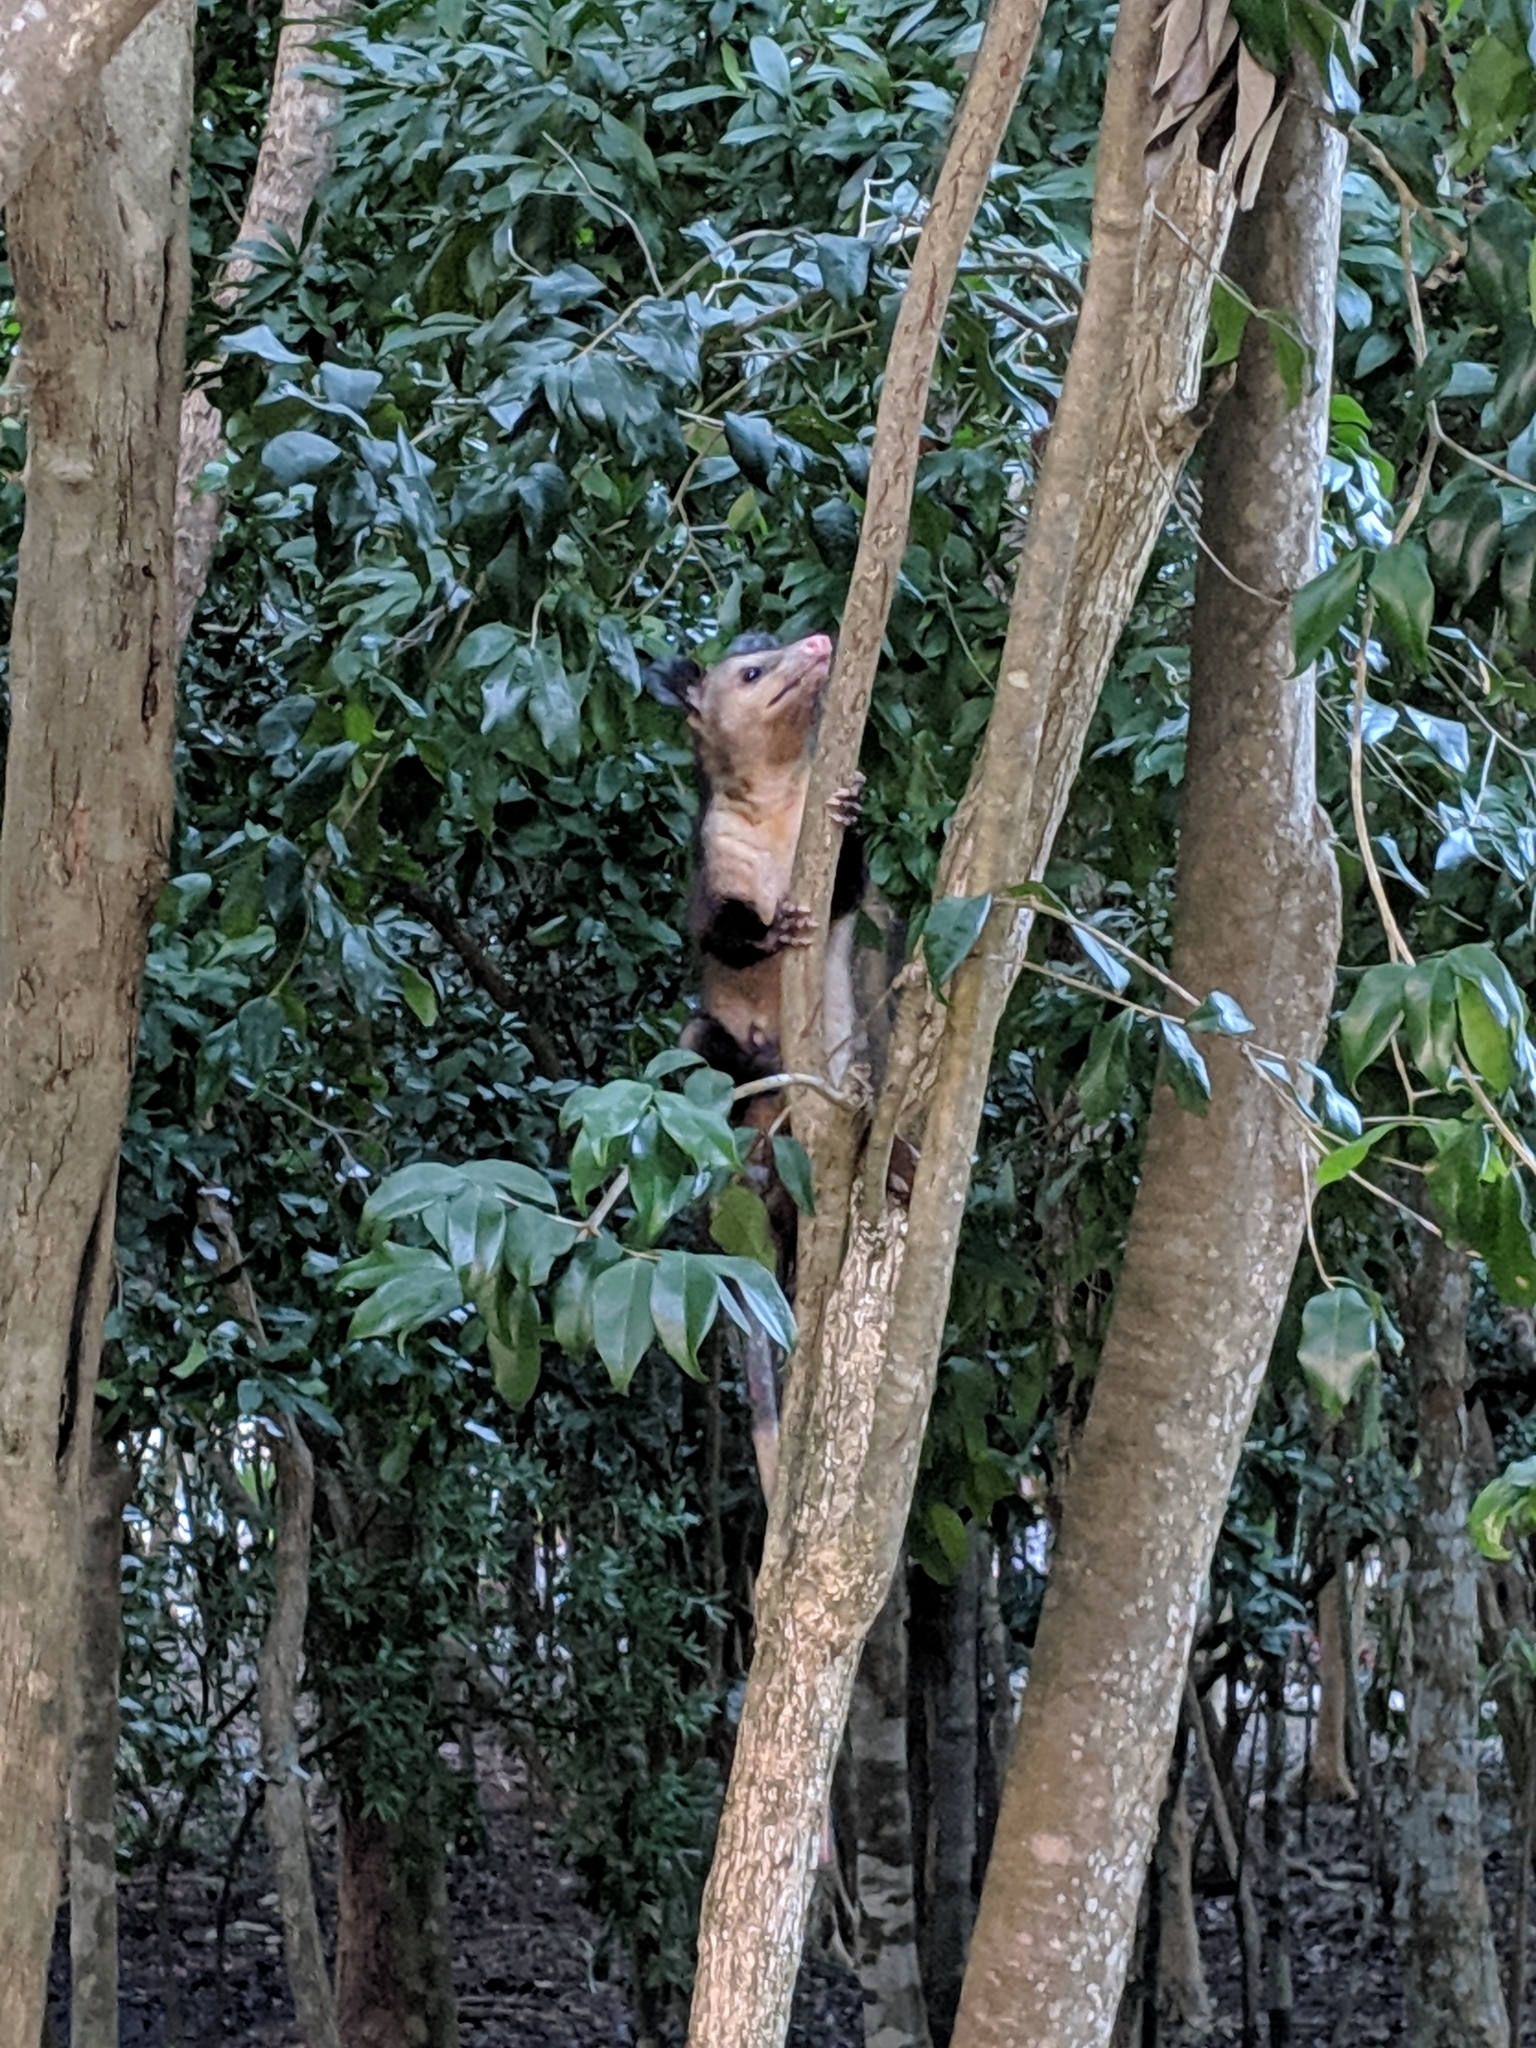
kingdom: Animalia
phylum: Chordata
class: Mammalia
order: Didelphimorphia
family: Didelphidae
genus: Didelphis
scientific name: Didelphis marsupialis
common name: Common opossum
